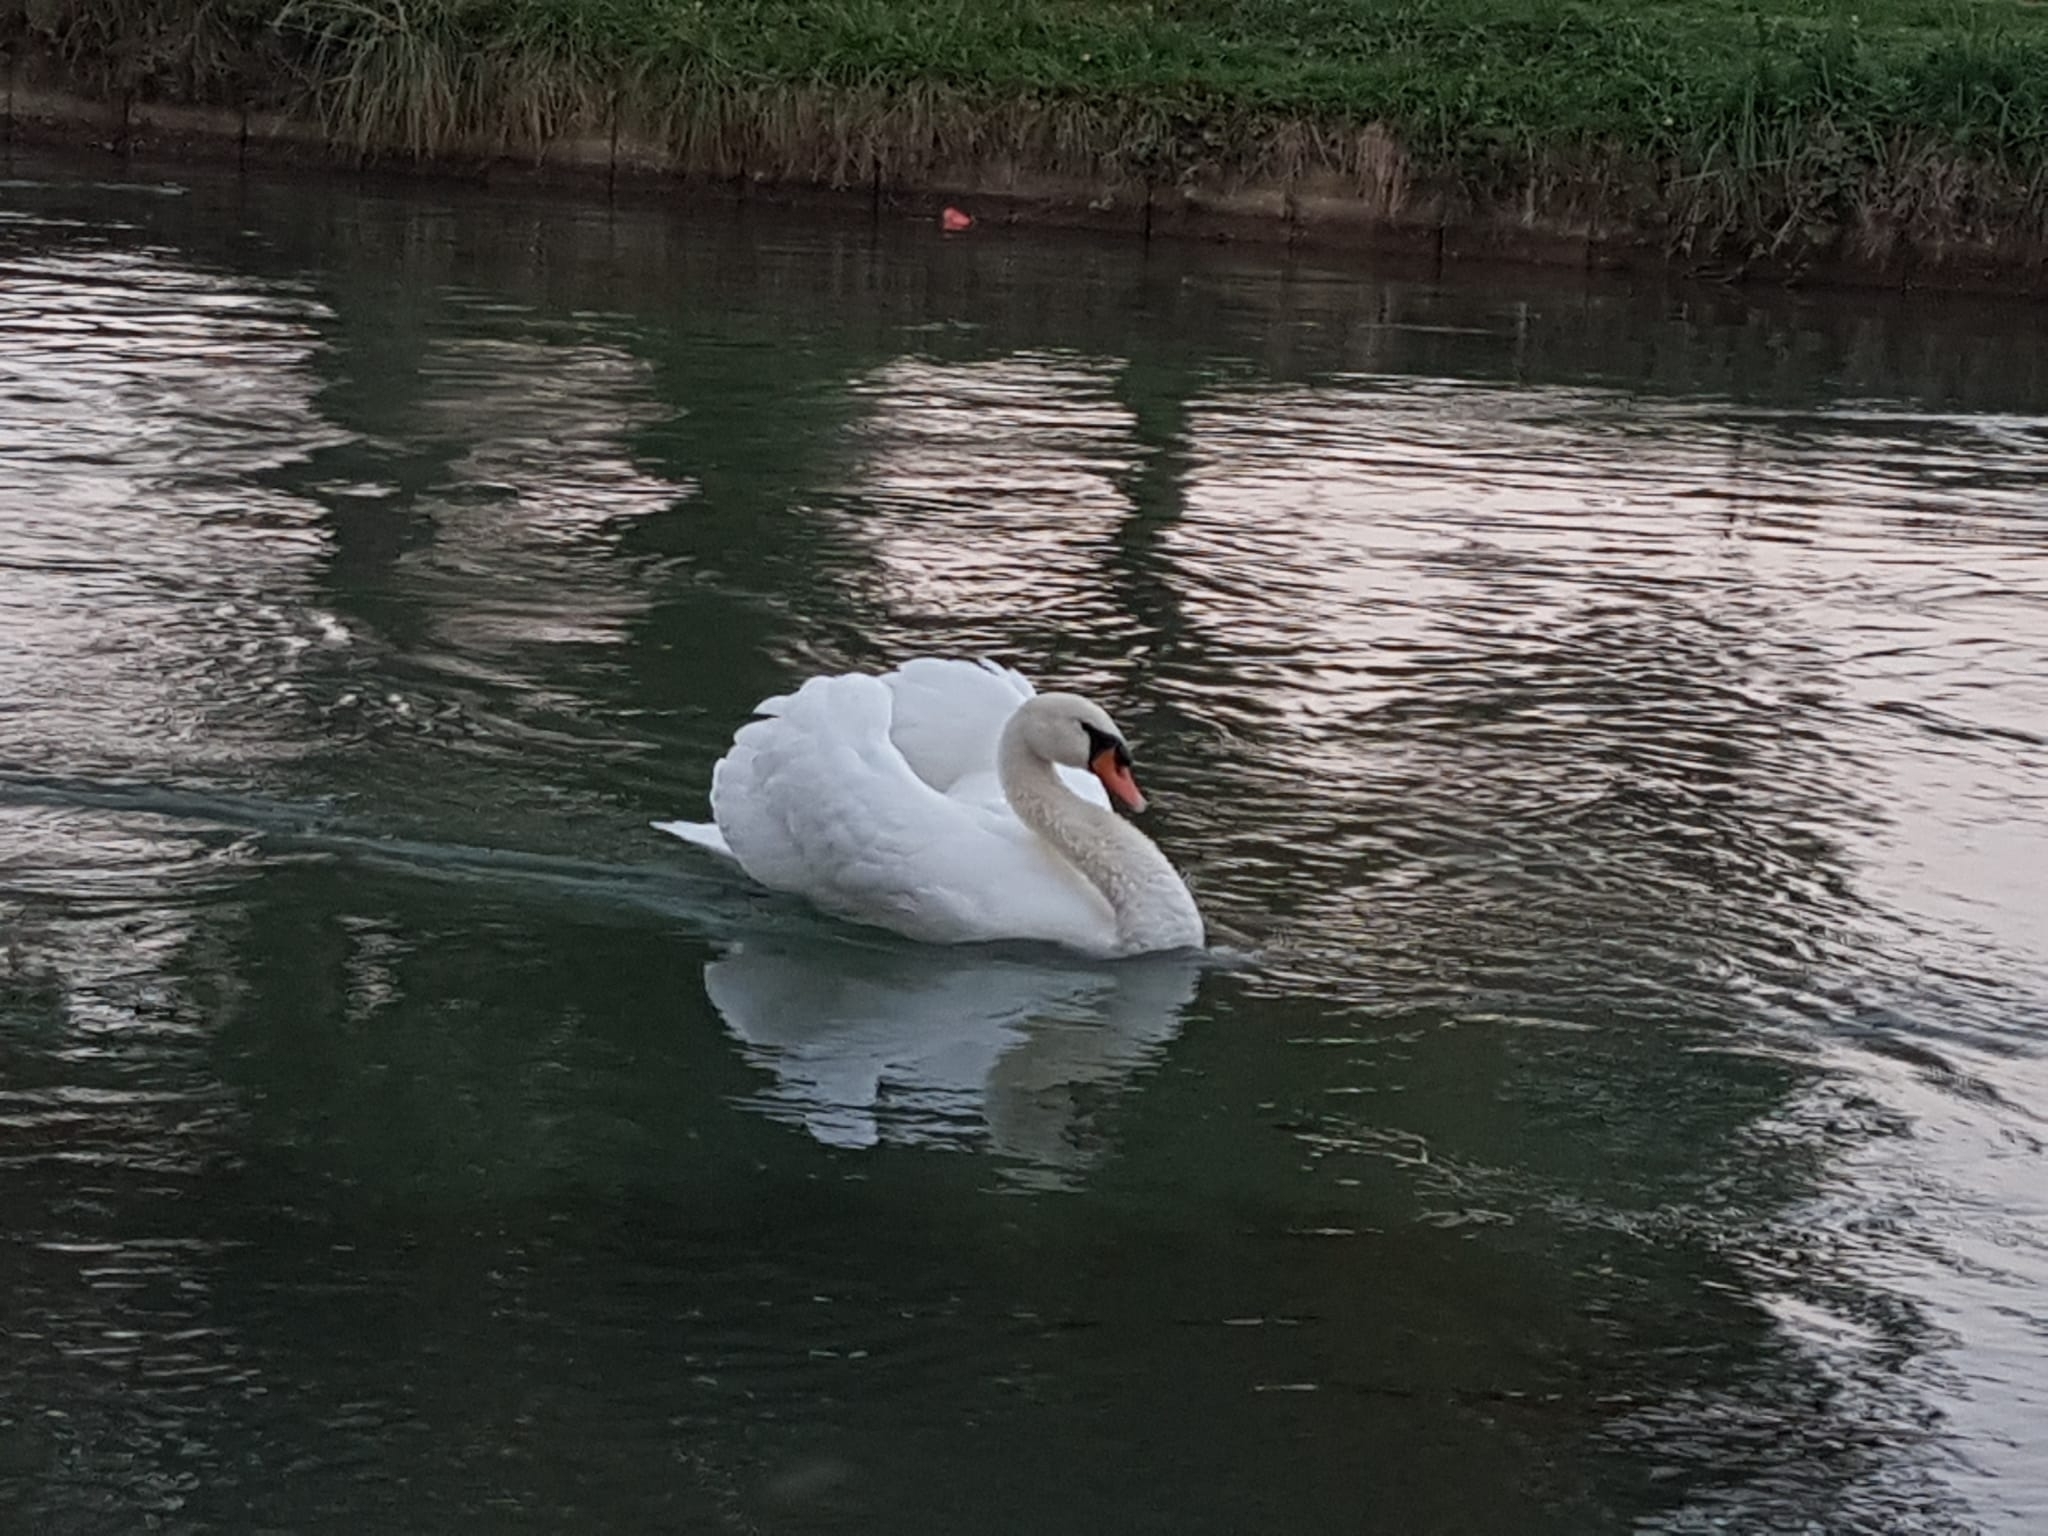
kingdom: Animalia
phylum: Chordata
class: Aves
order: Anseriformes
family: Anatidae
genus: Cygnus
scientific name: Cygnus olor
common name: Mute swan
